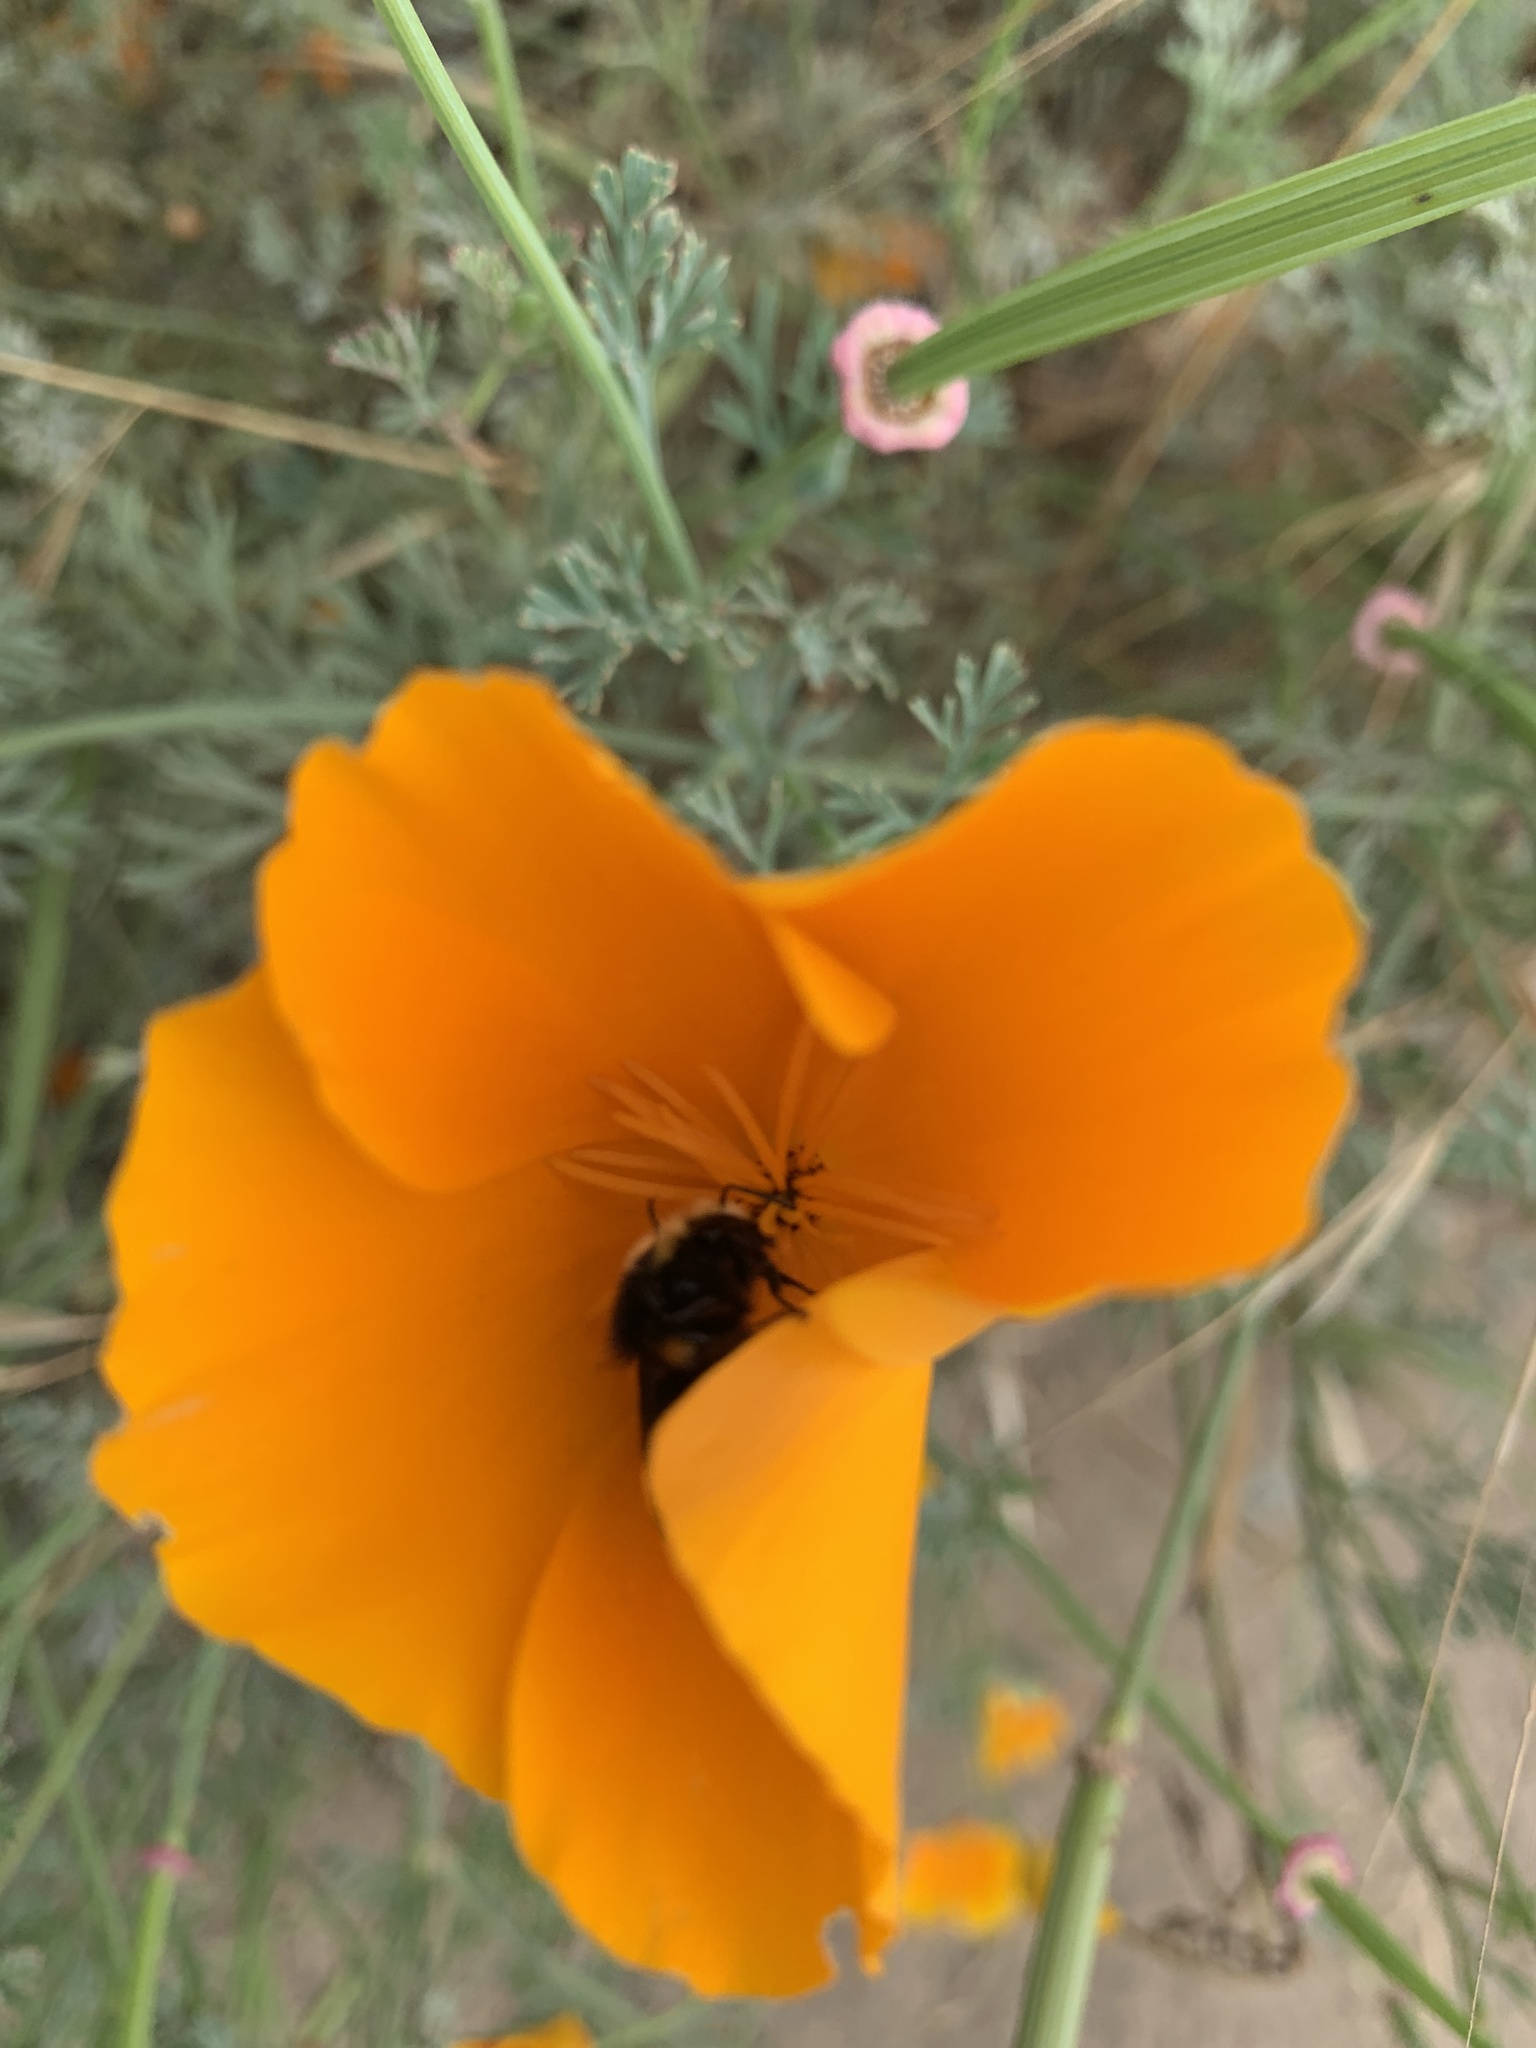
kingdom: Animalia
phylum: Arthropoda
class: Insecta
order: Hymenoptera
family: Apidae
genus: Bombus
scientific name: Bombus vosnesenskii
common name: Vosnesensky bumble bee
